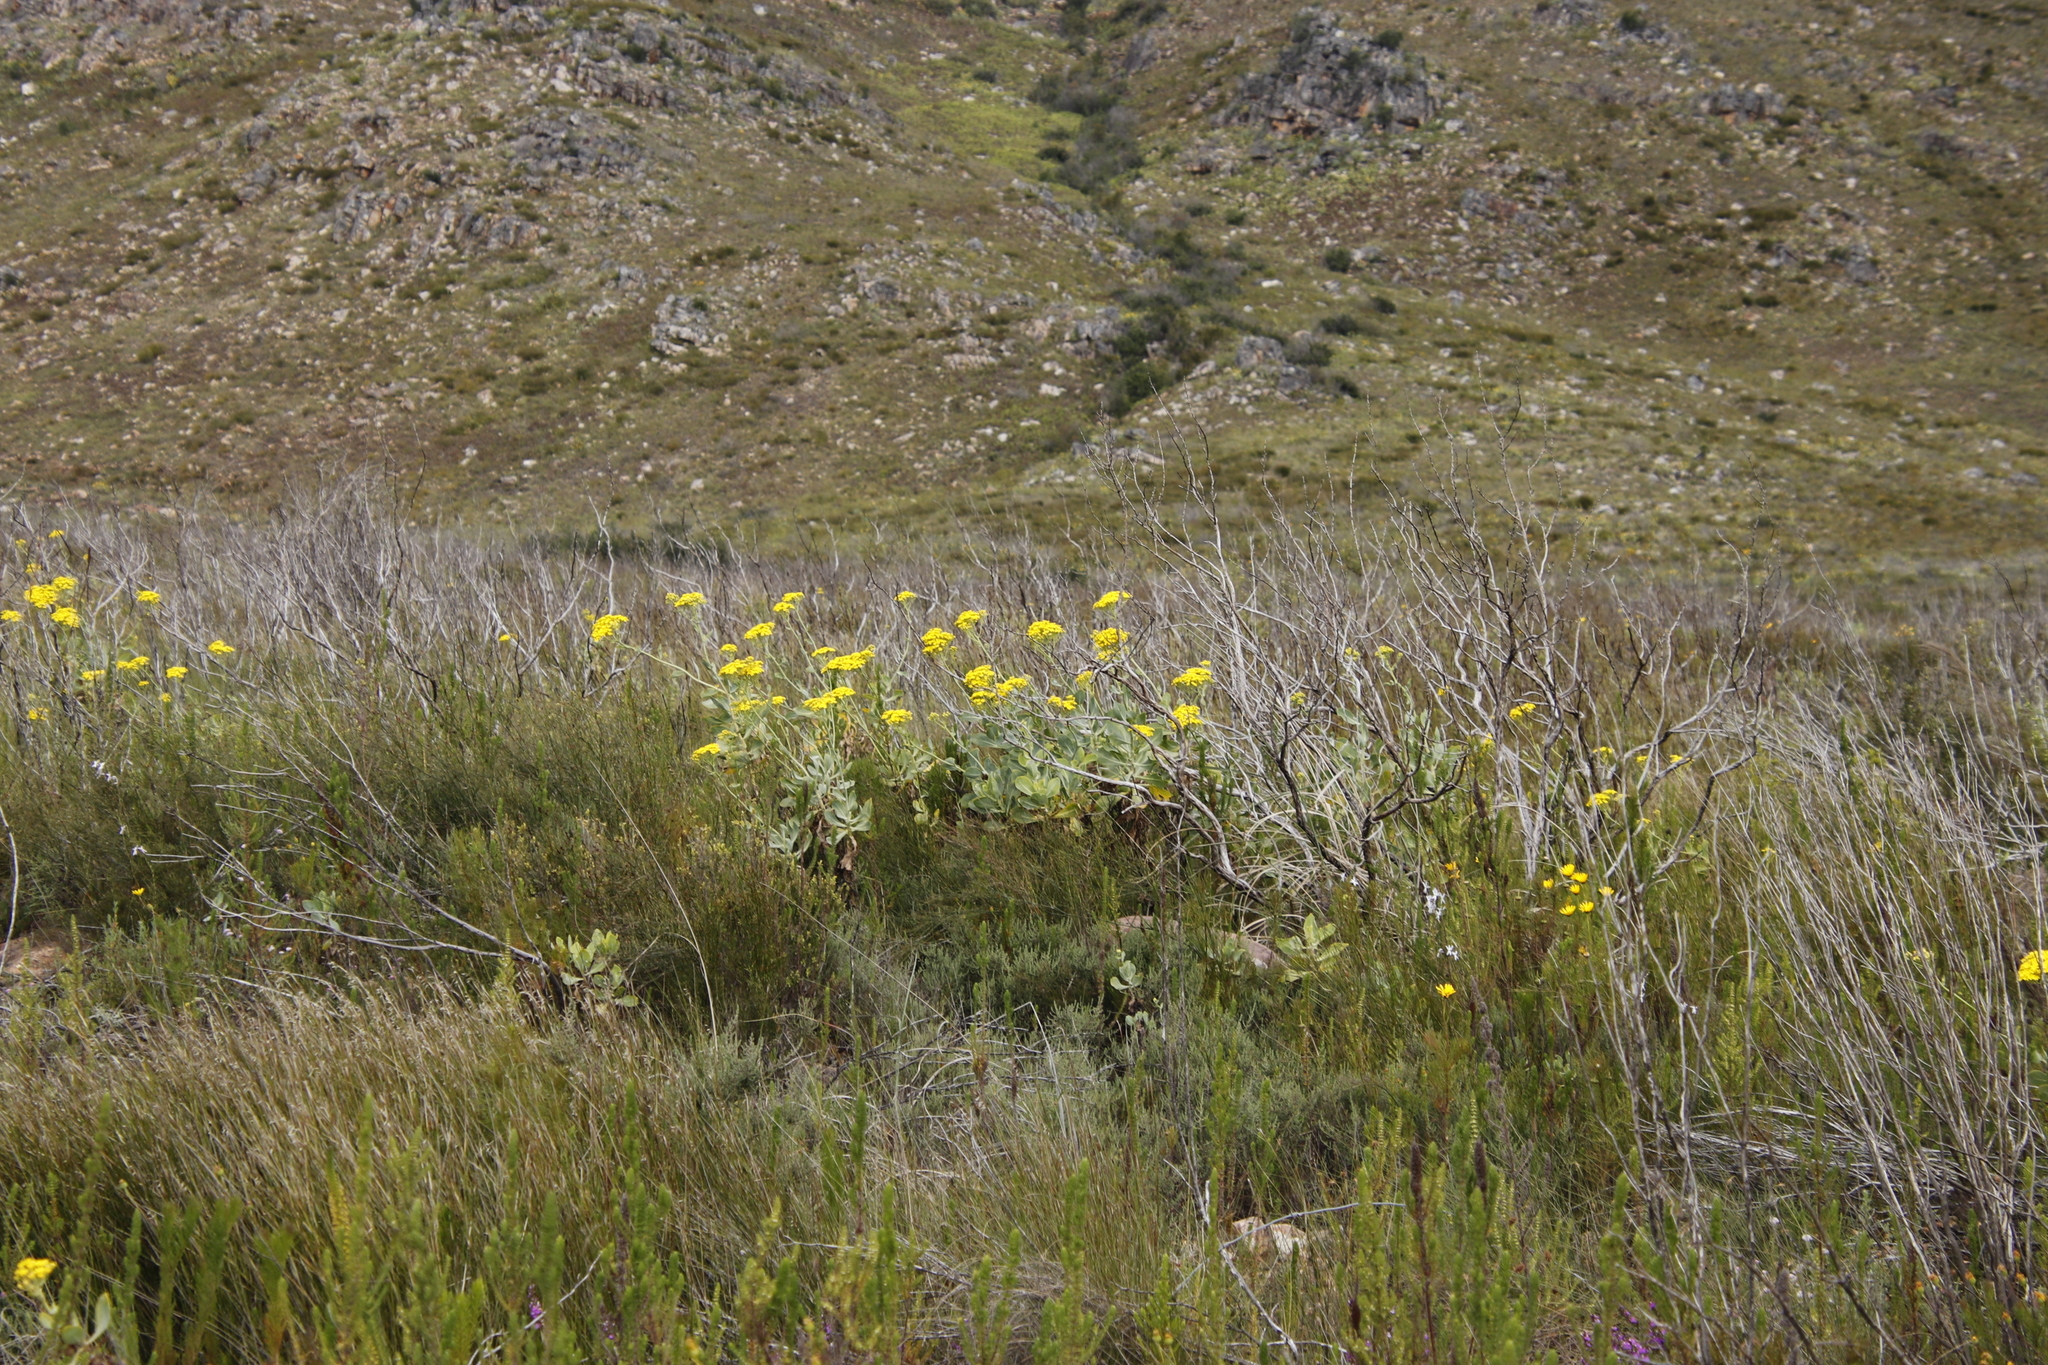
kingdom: Plantae
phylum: Tracheophyta
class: Magnoliopsida
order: Asterales
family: Asteraceae
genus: Othonna
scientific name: Othonna parviflora
